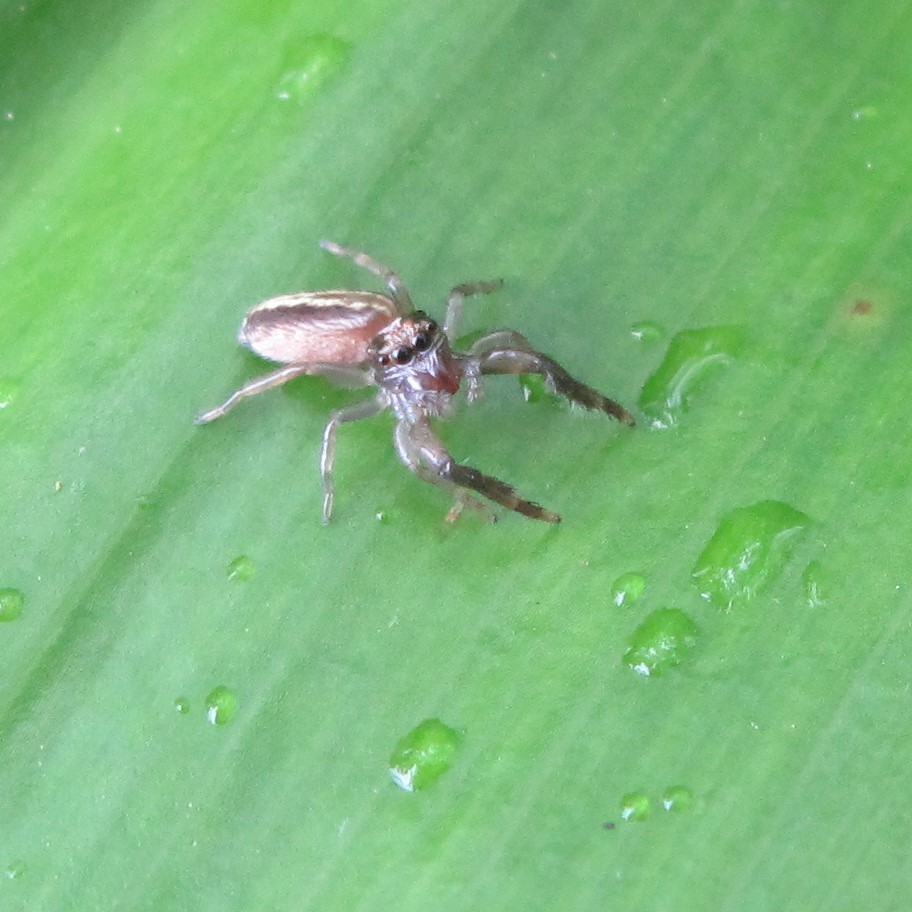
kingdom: Animalia
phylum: Arthropoda
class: Arachnida
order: Araneae
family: Salticidae
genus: Trite
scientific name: Trite planiceps
